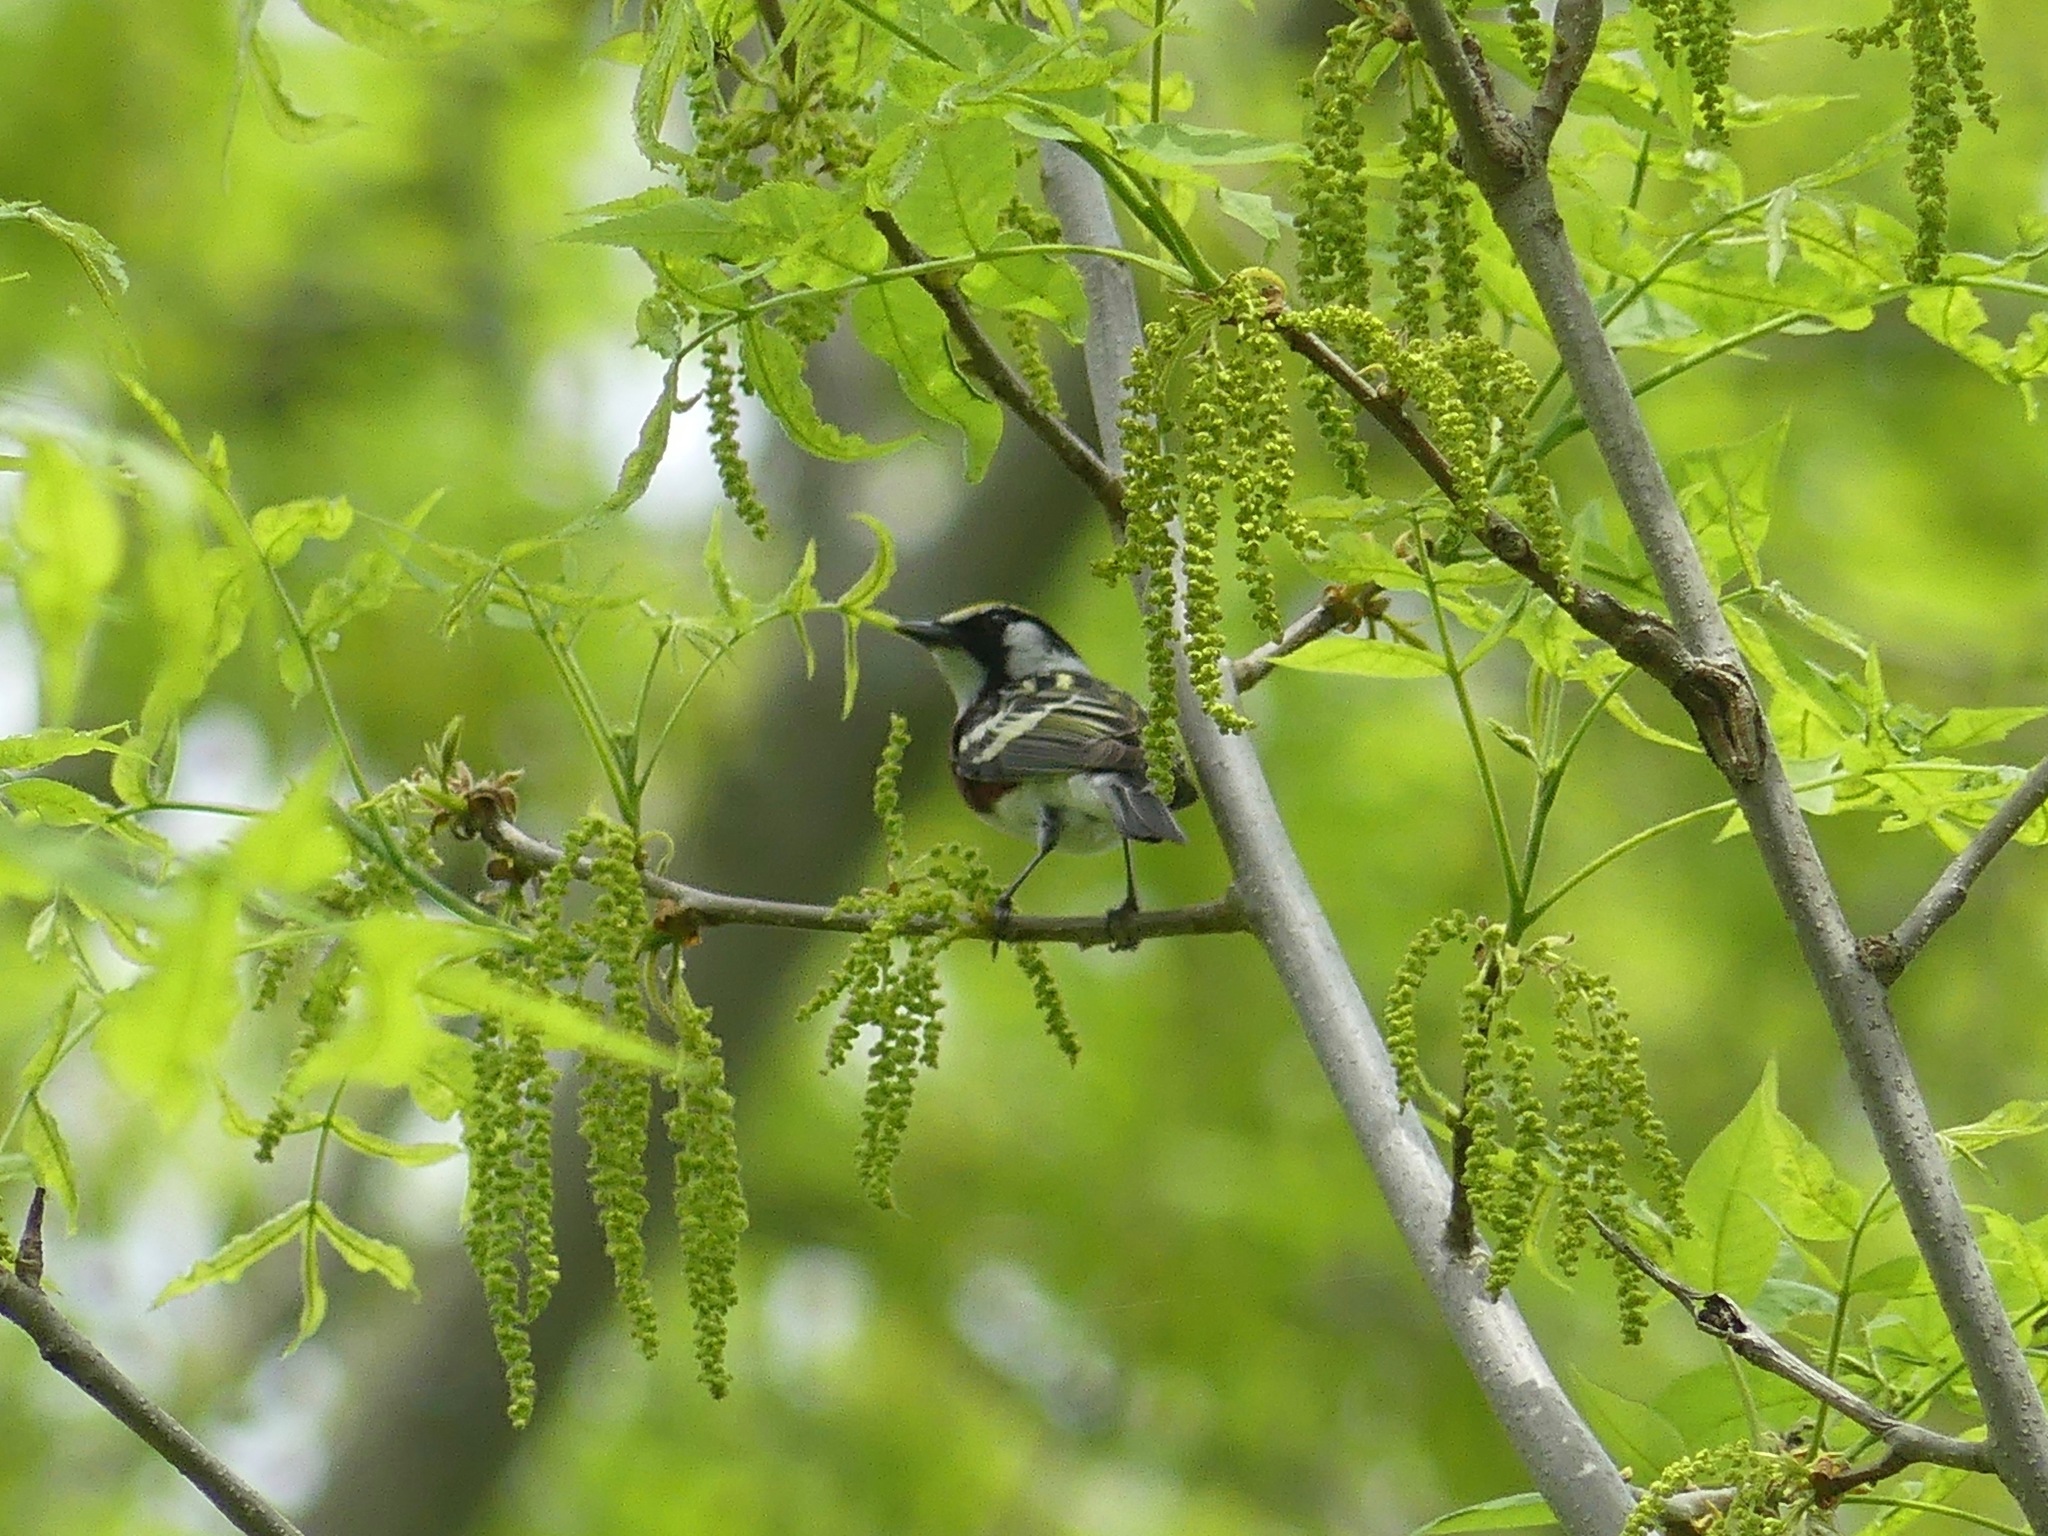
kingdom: Animalia
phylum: Chordata
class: Aves
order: Passeriformes
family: Parulidae
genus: Setophaga
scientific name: Setophaga pensylvanica
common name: Chestnut-sided warbler
